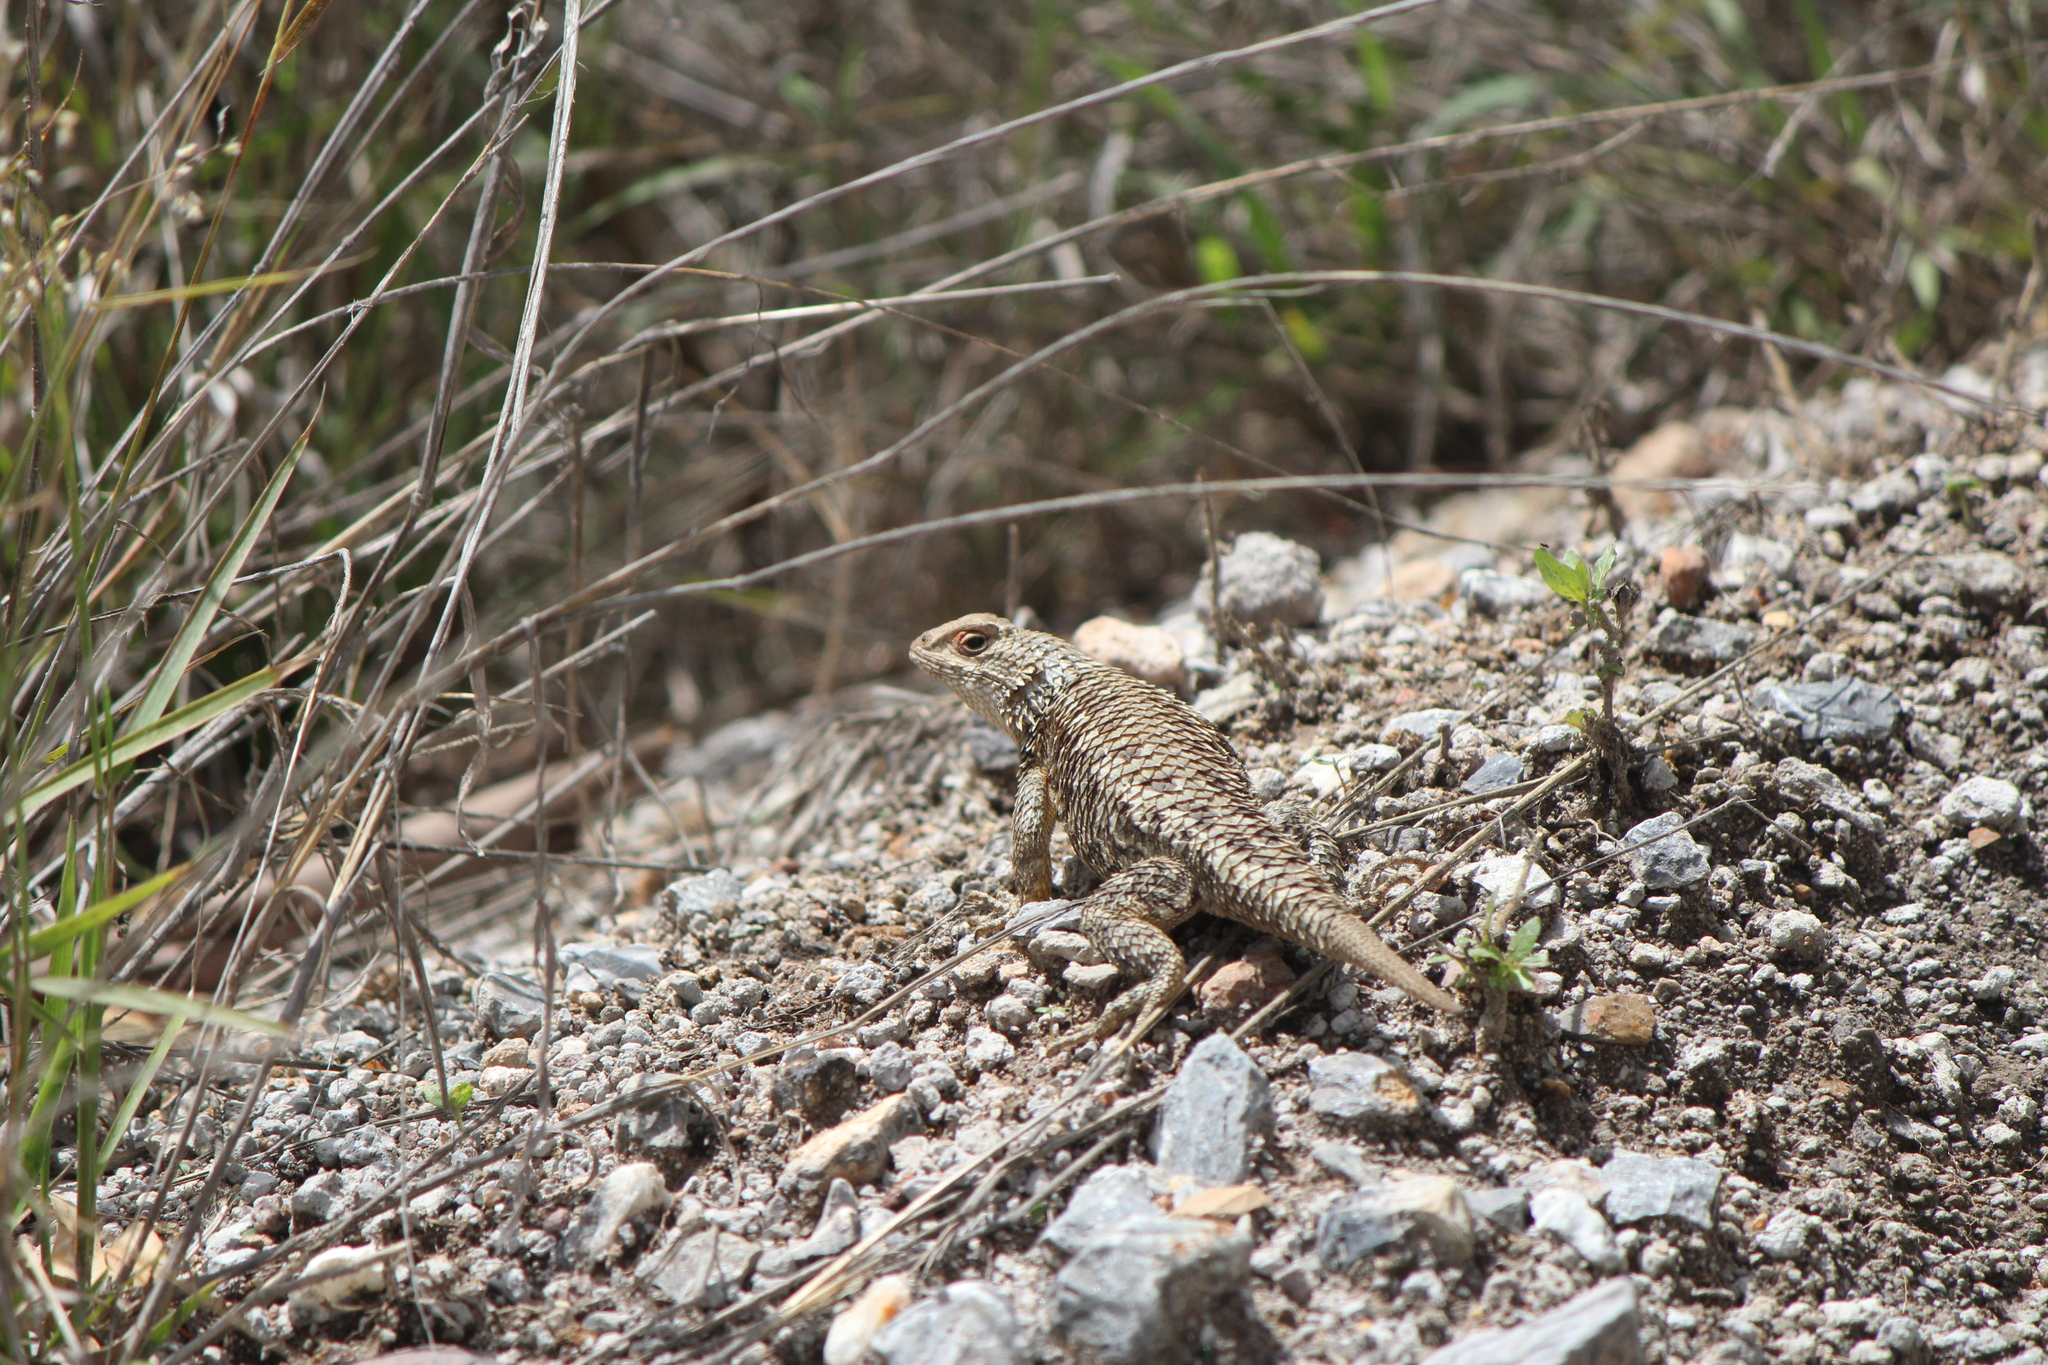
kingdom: Animalia
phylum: Chordata
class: Squamata
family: Phrynosomatidae
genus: Sceloporus
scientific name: Sceloporus spinosus
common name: Blue-spotted spiny lizard [caeruleopunctatus]
